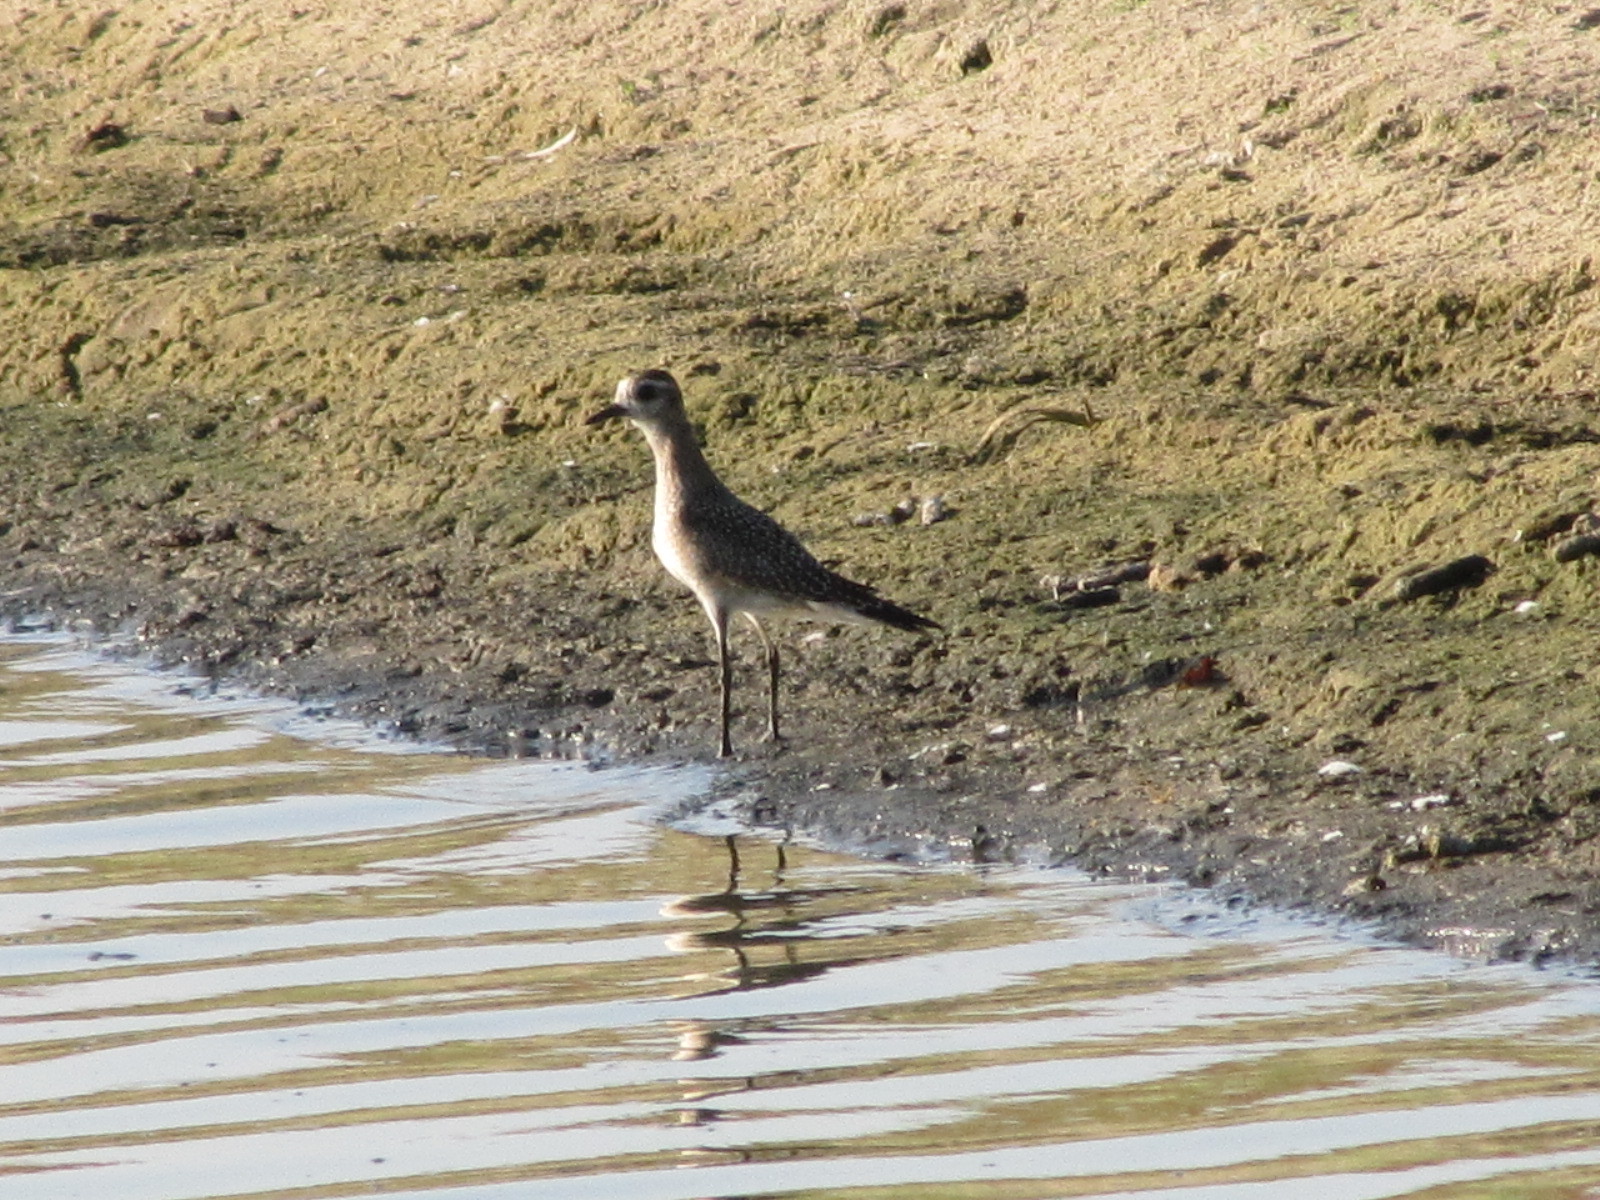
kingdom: Animalia
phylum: Chordata
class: Aves
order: Charadriiformes
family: Charadriidae
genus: Pluvialis
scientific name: Pluvialis dominica
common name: American golden plover
